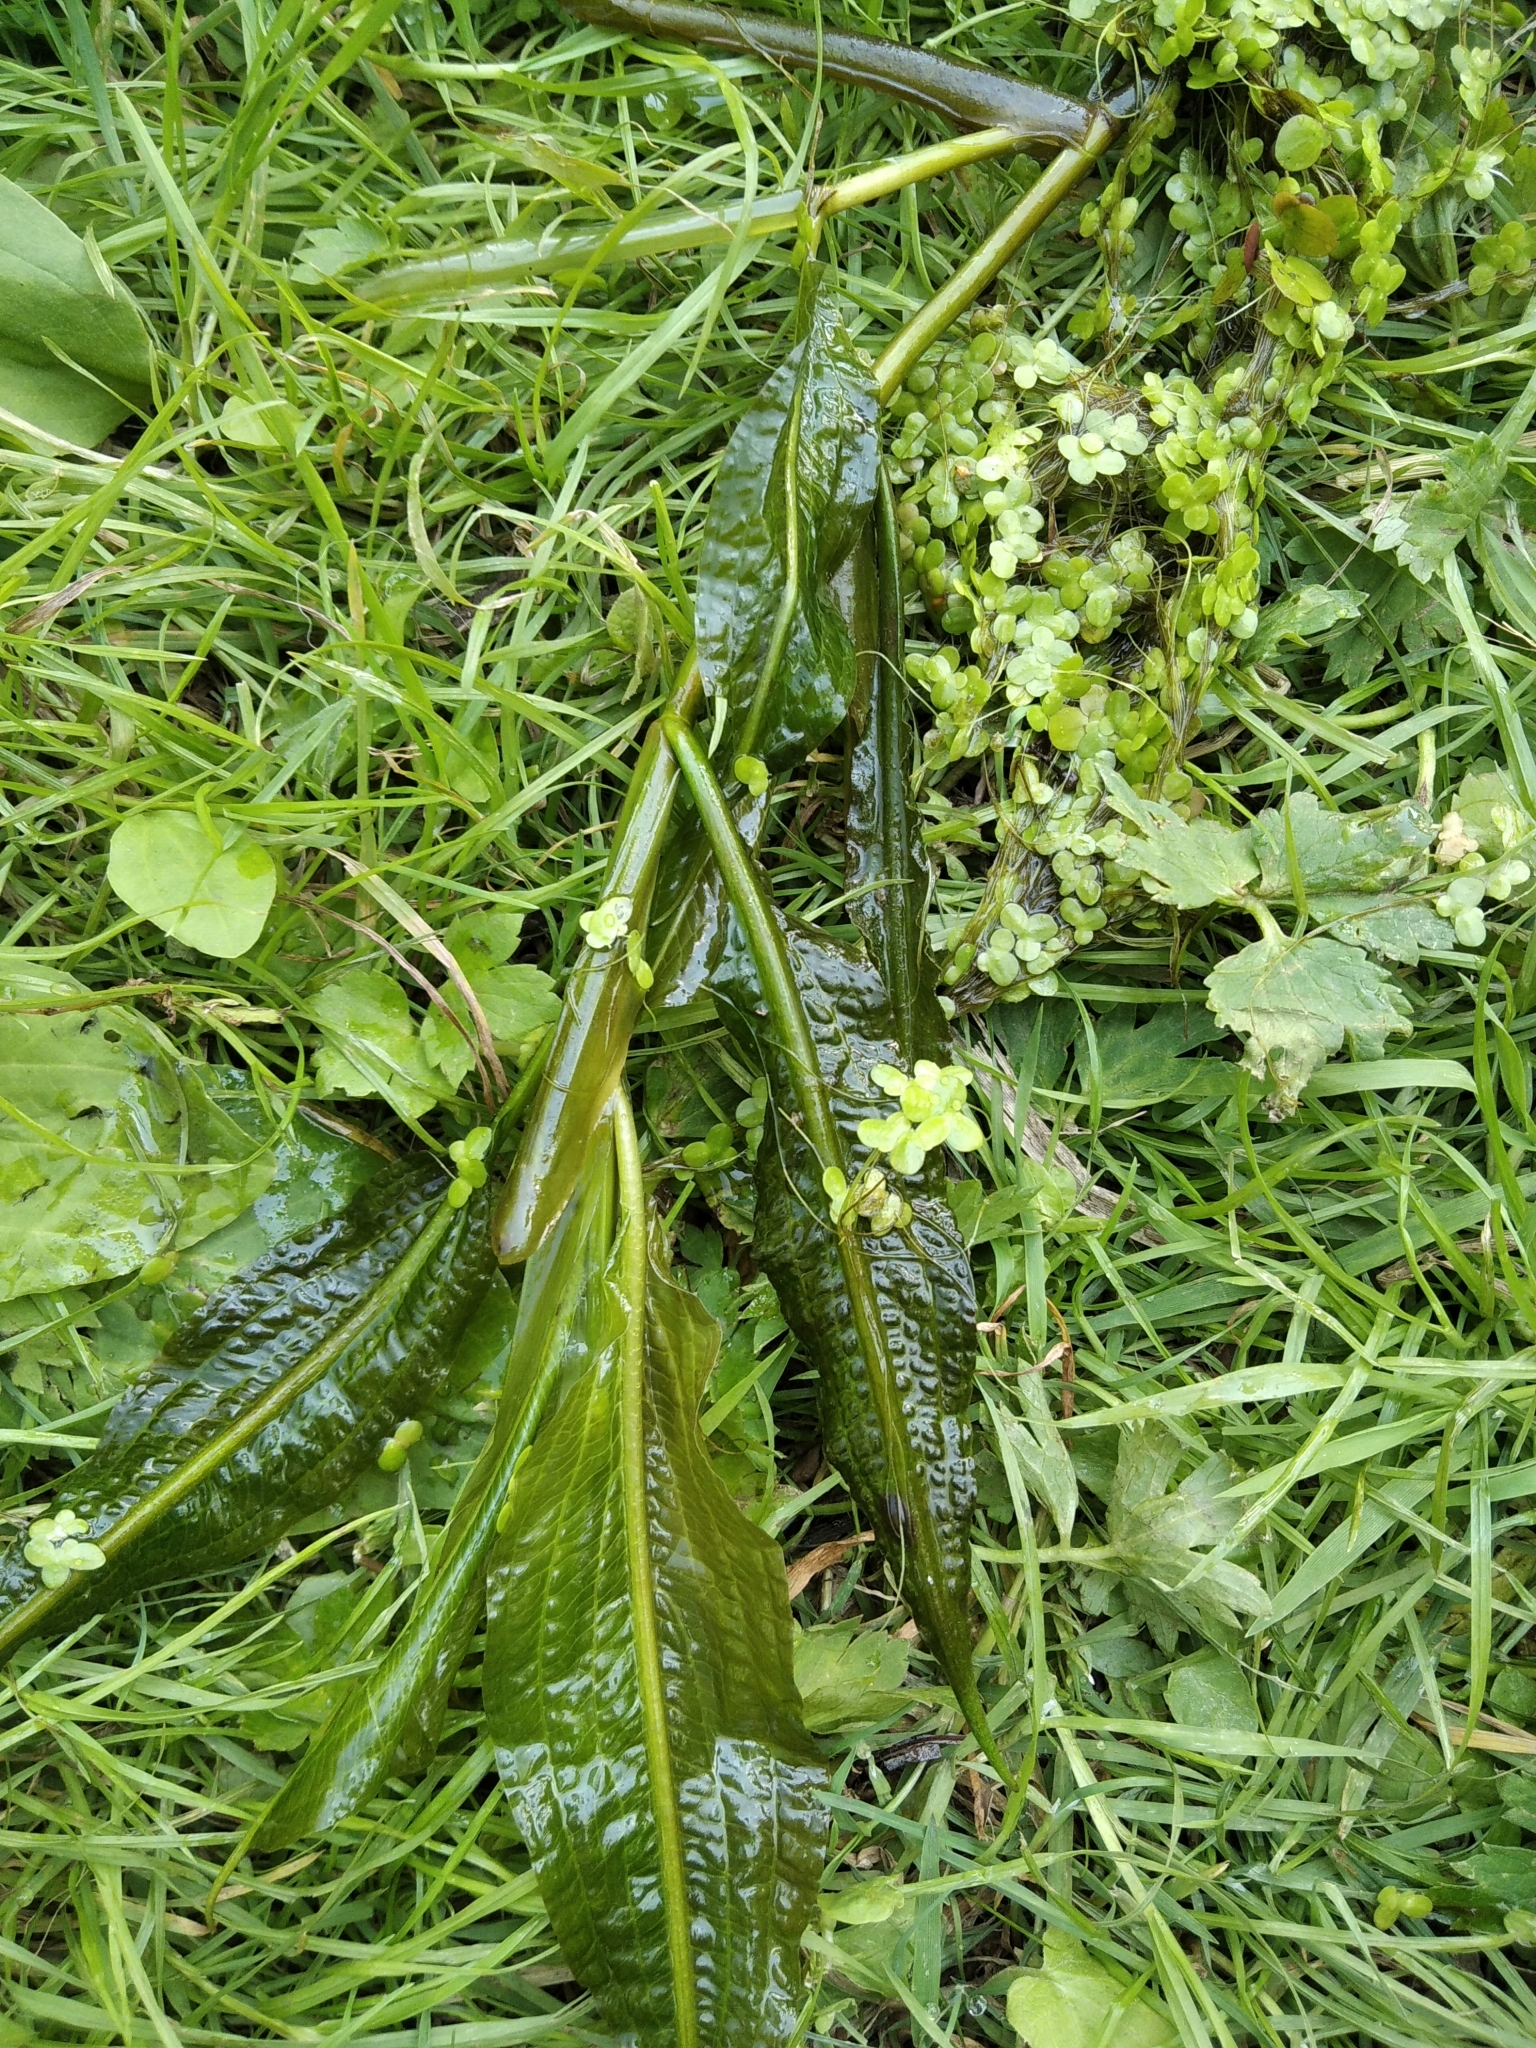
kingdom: Plantae
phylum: Tracheophyta
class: Liliopsida
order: Alismatales
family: Potamogetonaceae
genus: Potamogeton
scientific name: Potamogeton lucens
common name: Shining pondweed
